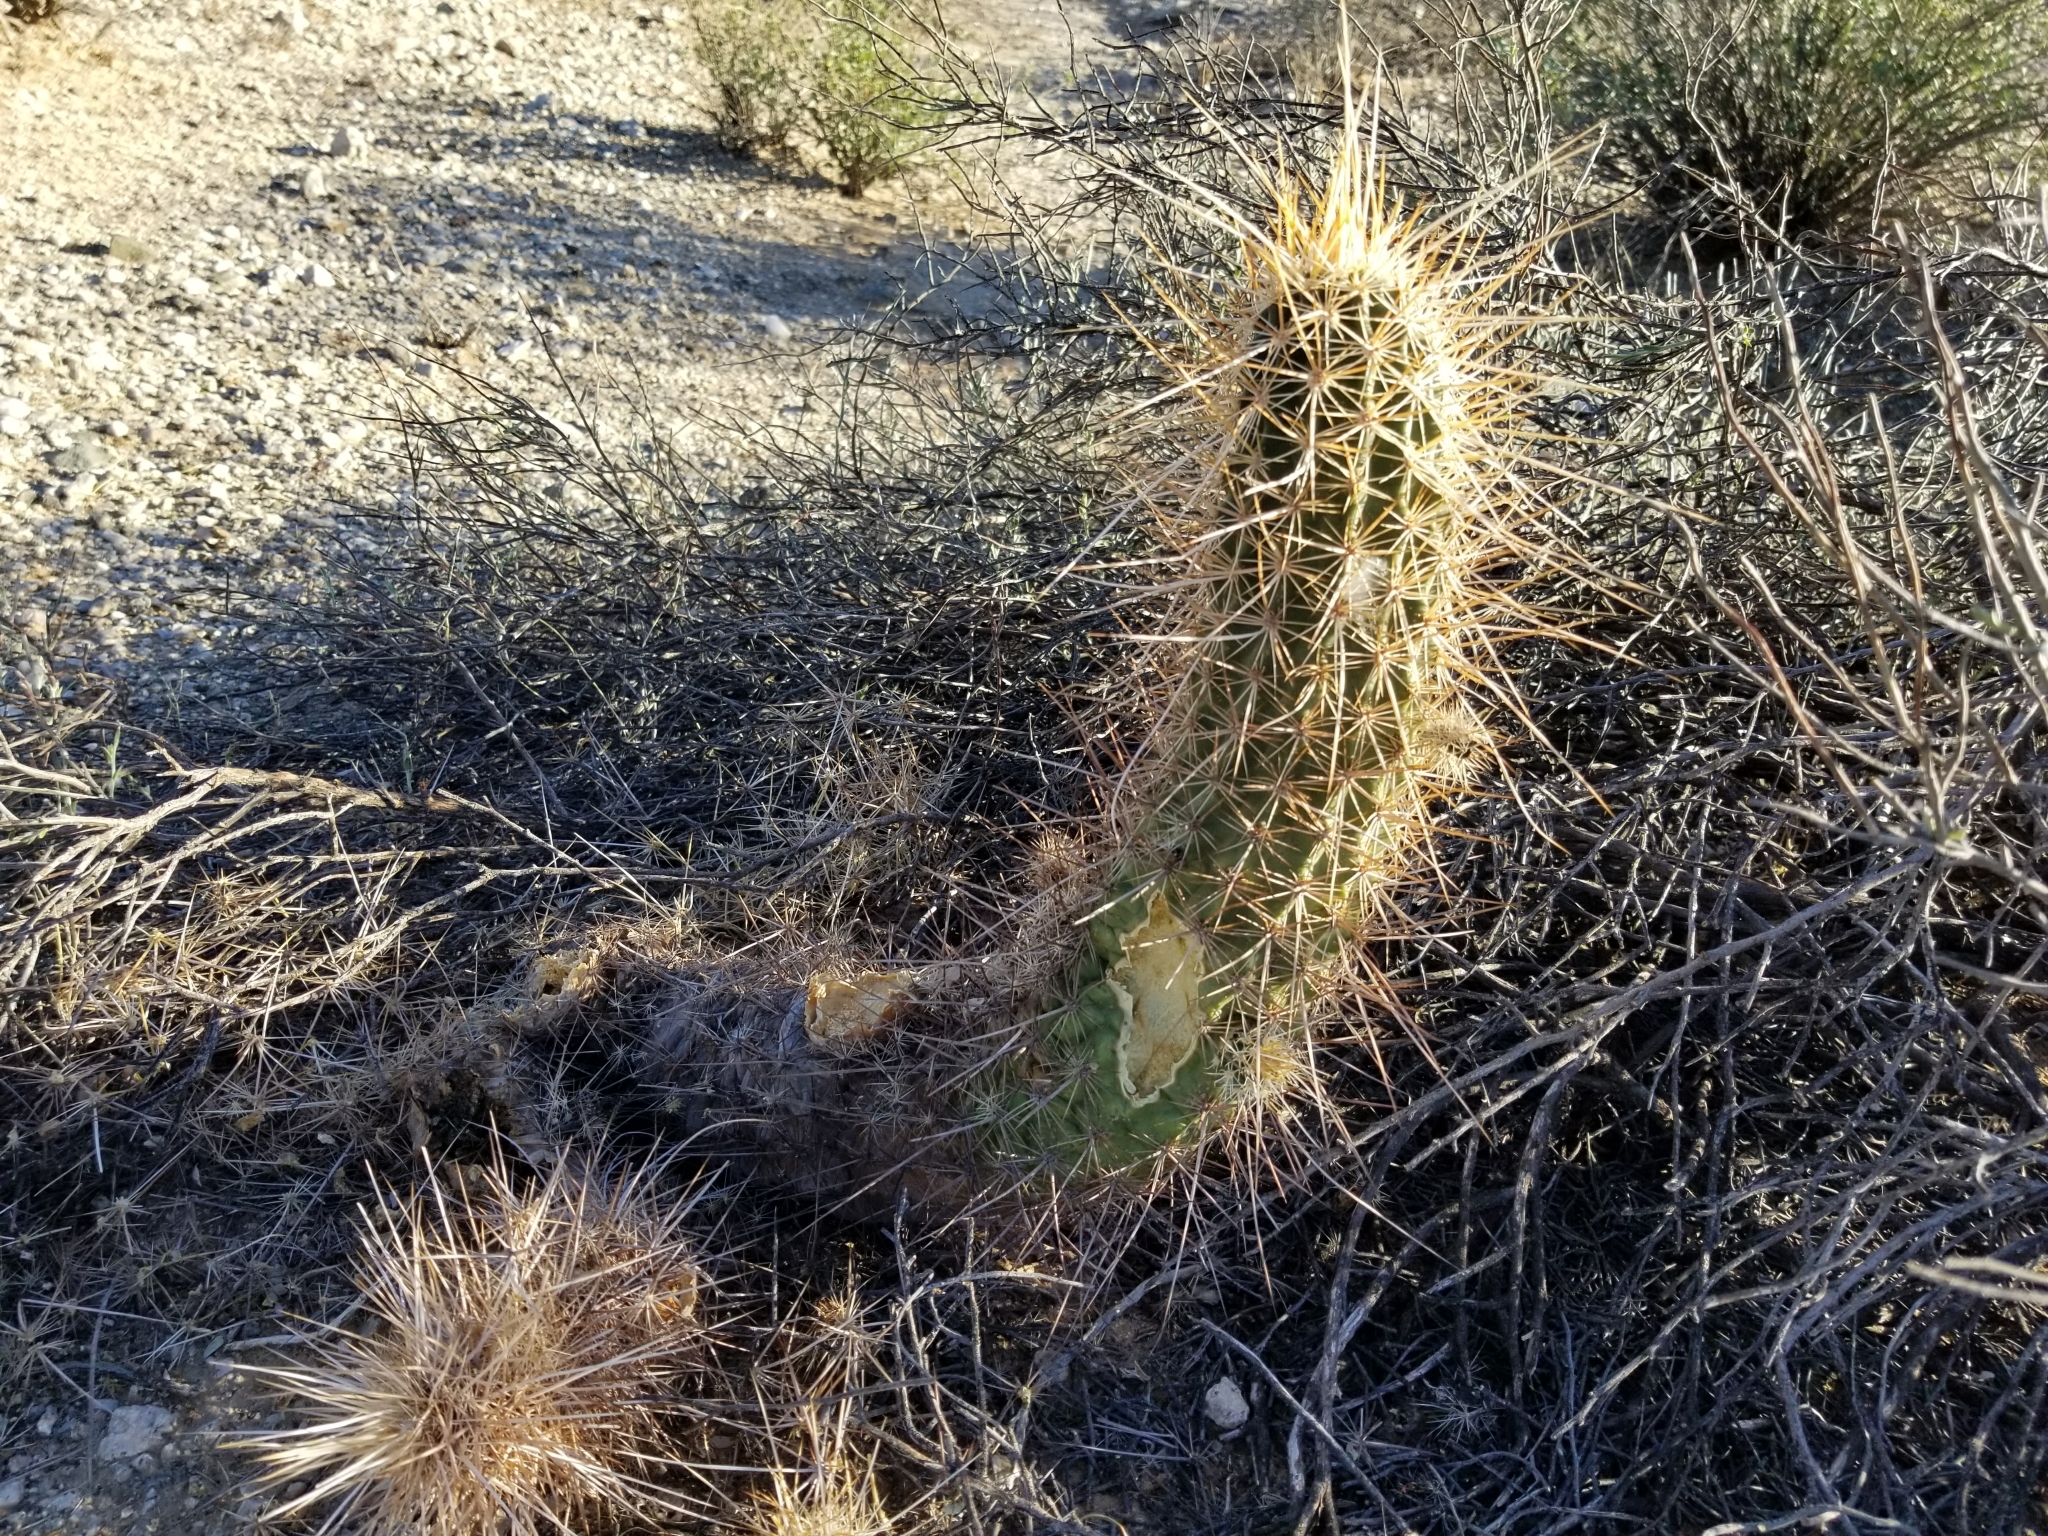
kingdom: Plantae
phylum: Tracheophyta
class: Magnoliopsida
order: Caryophyllales
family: Cactaceae
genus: Echinocereus
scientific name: Echinocereus engelmannii
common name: Engelmann's hedgehog cactus
